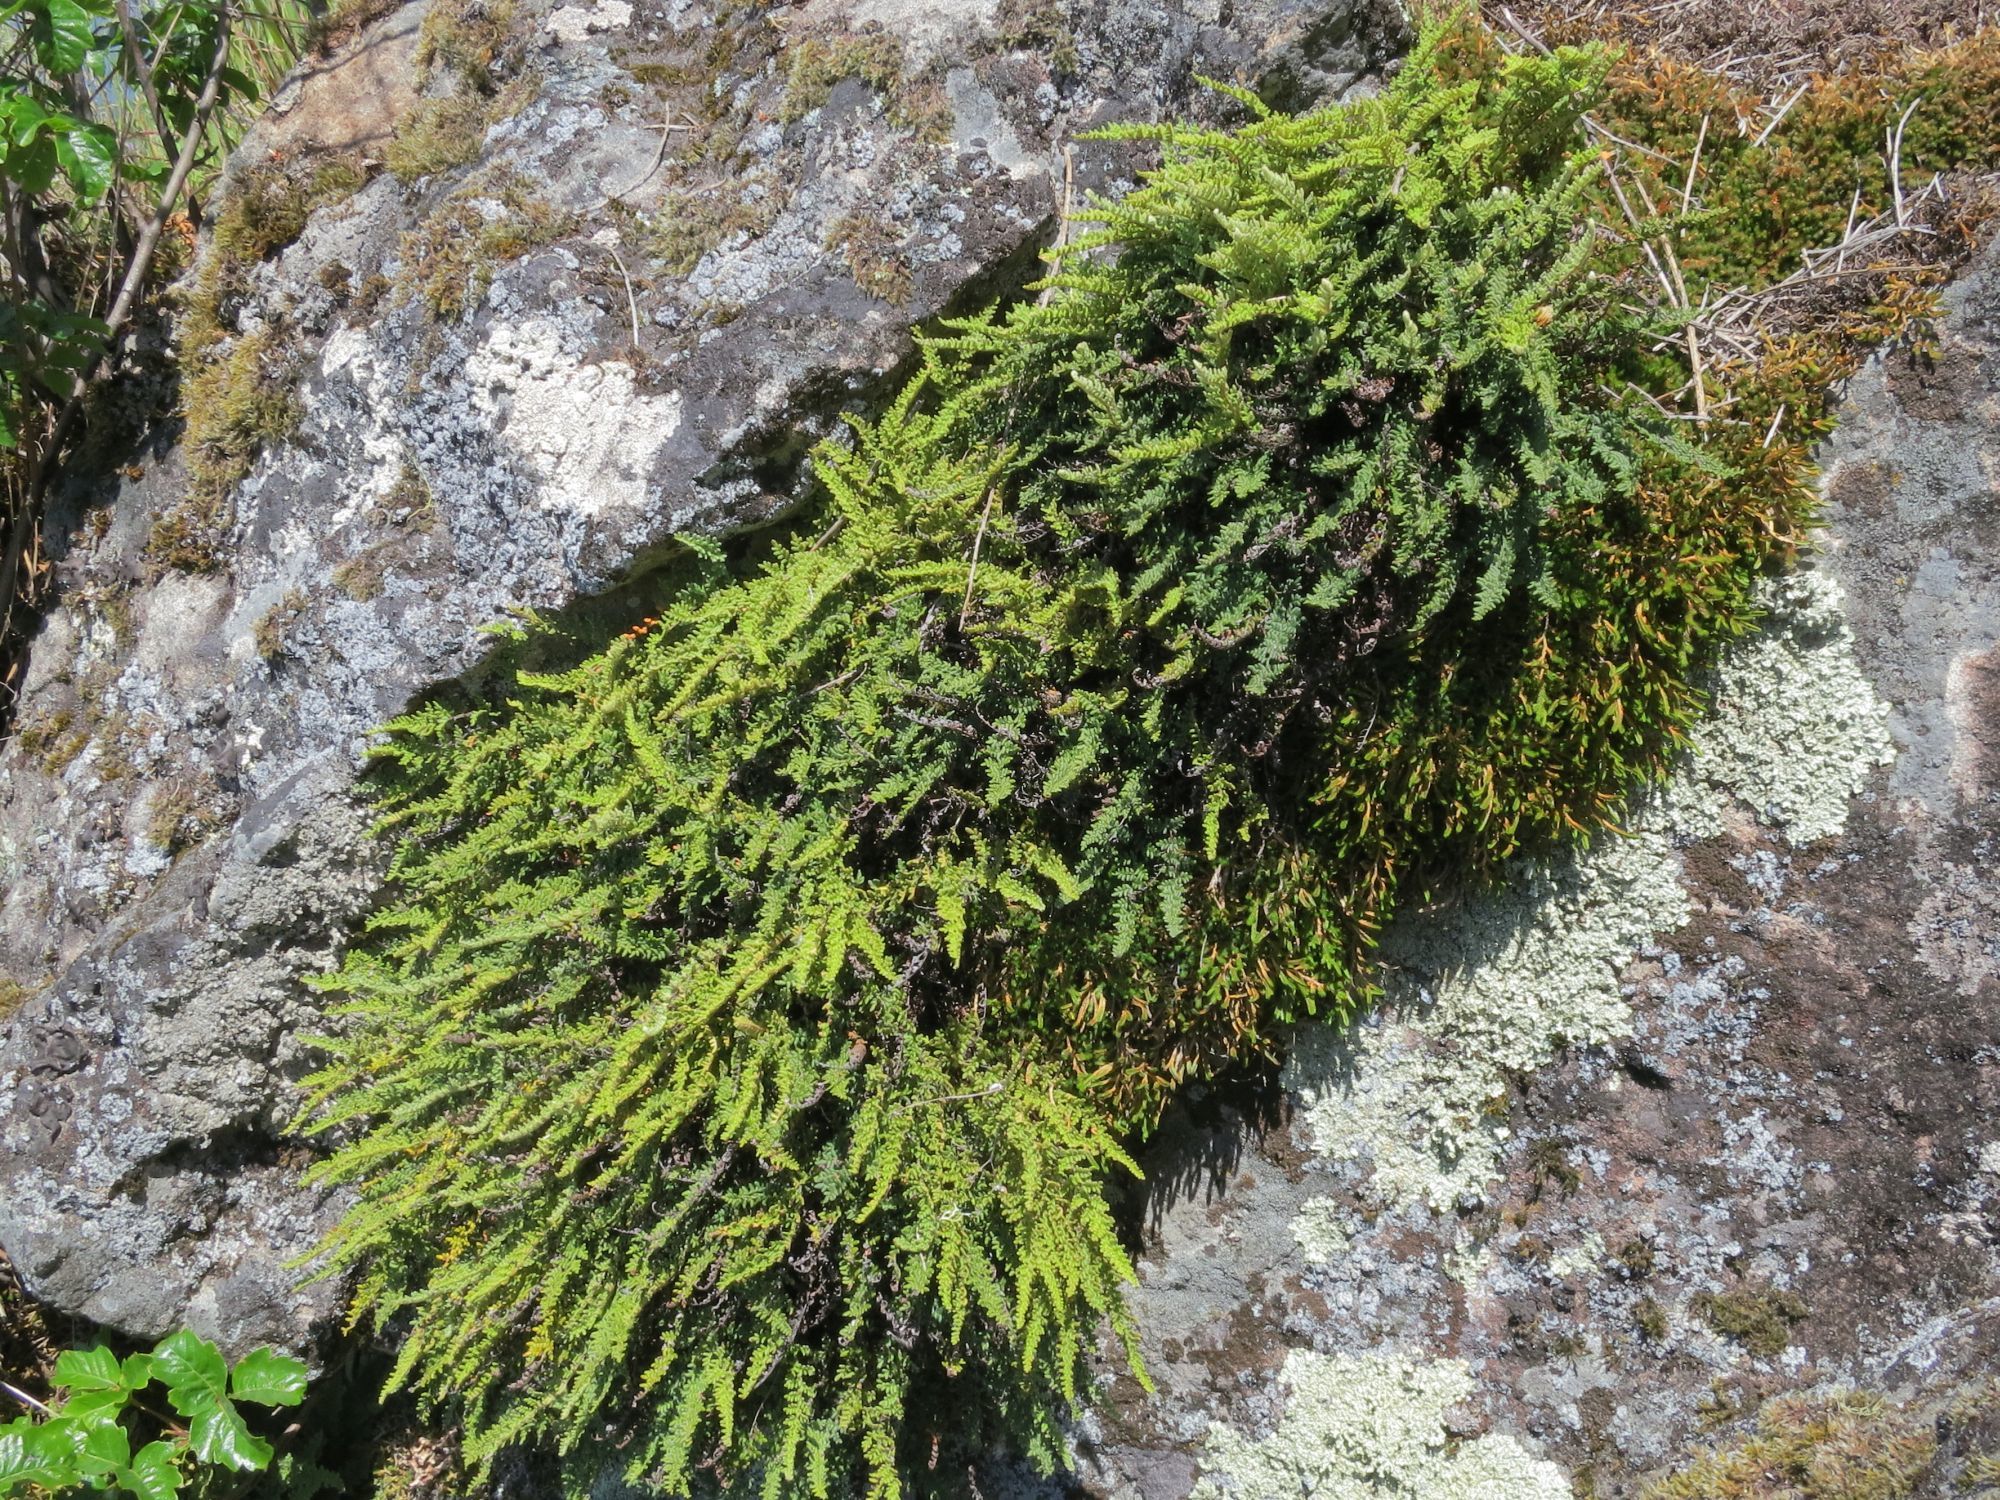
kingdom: Plantae
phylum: Tracheophyta
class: Polypodiopsida
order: Polypodiales
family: Pteridaceae
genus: Myriopteris
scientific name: Myriopteris gracillima
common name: Lace fern
